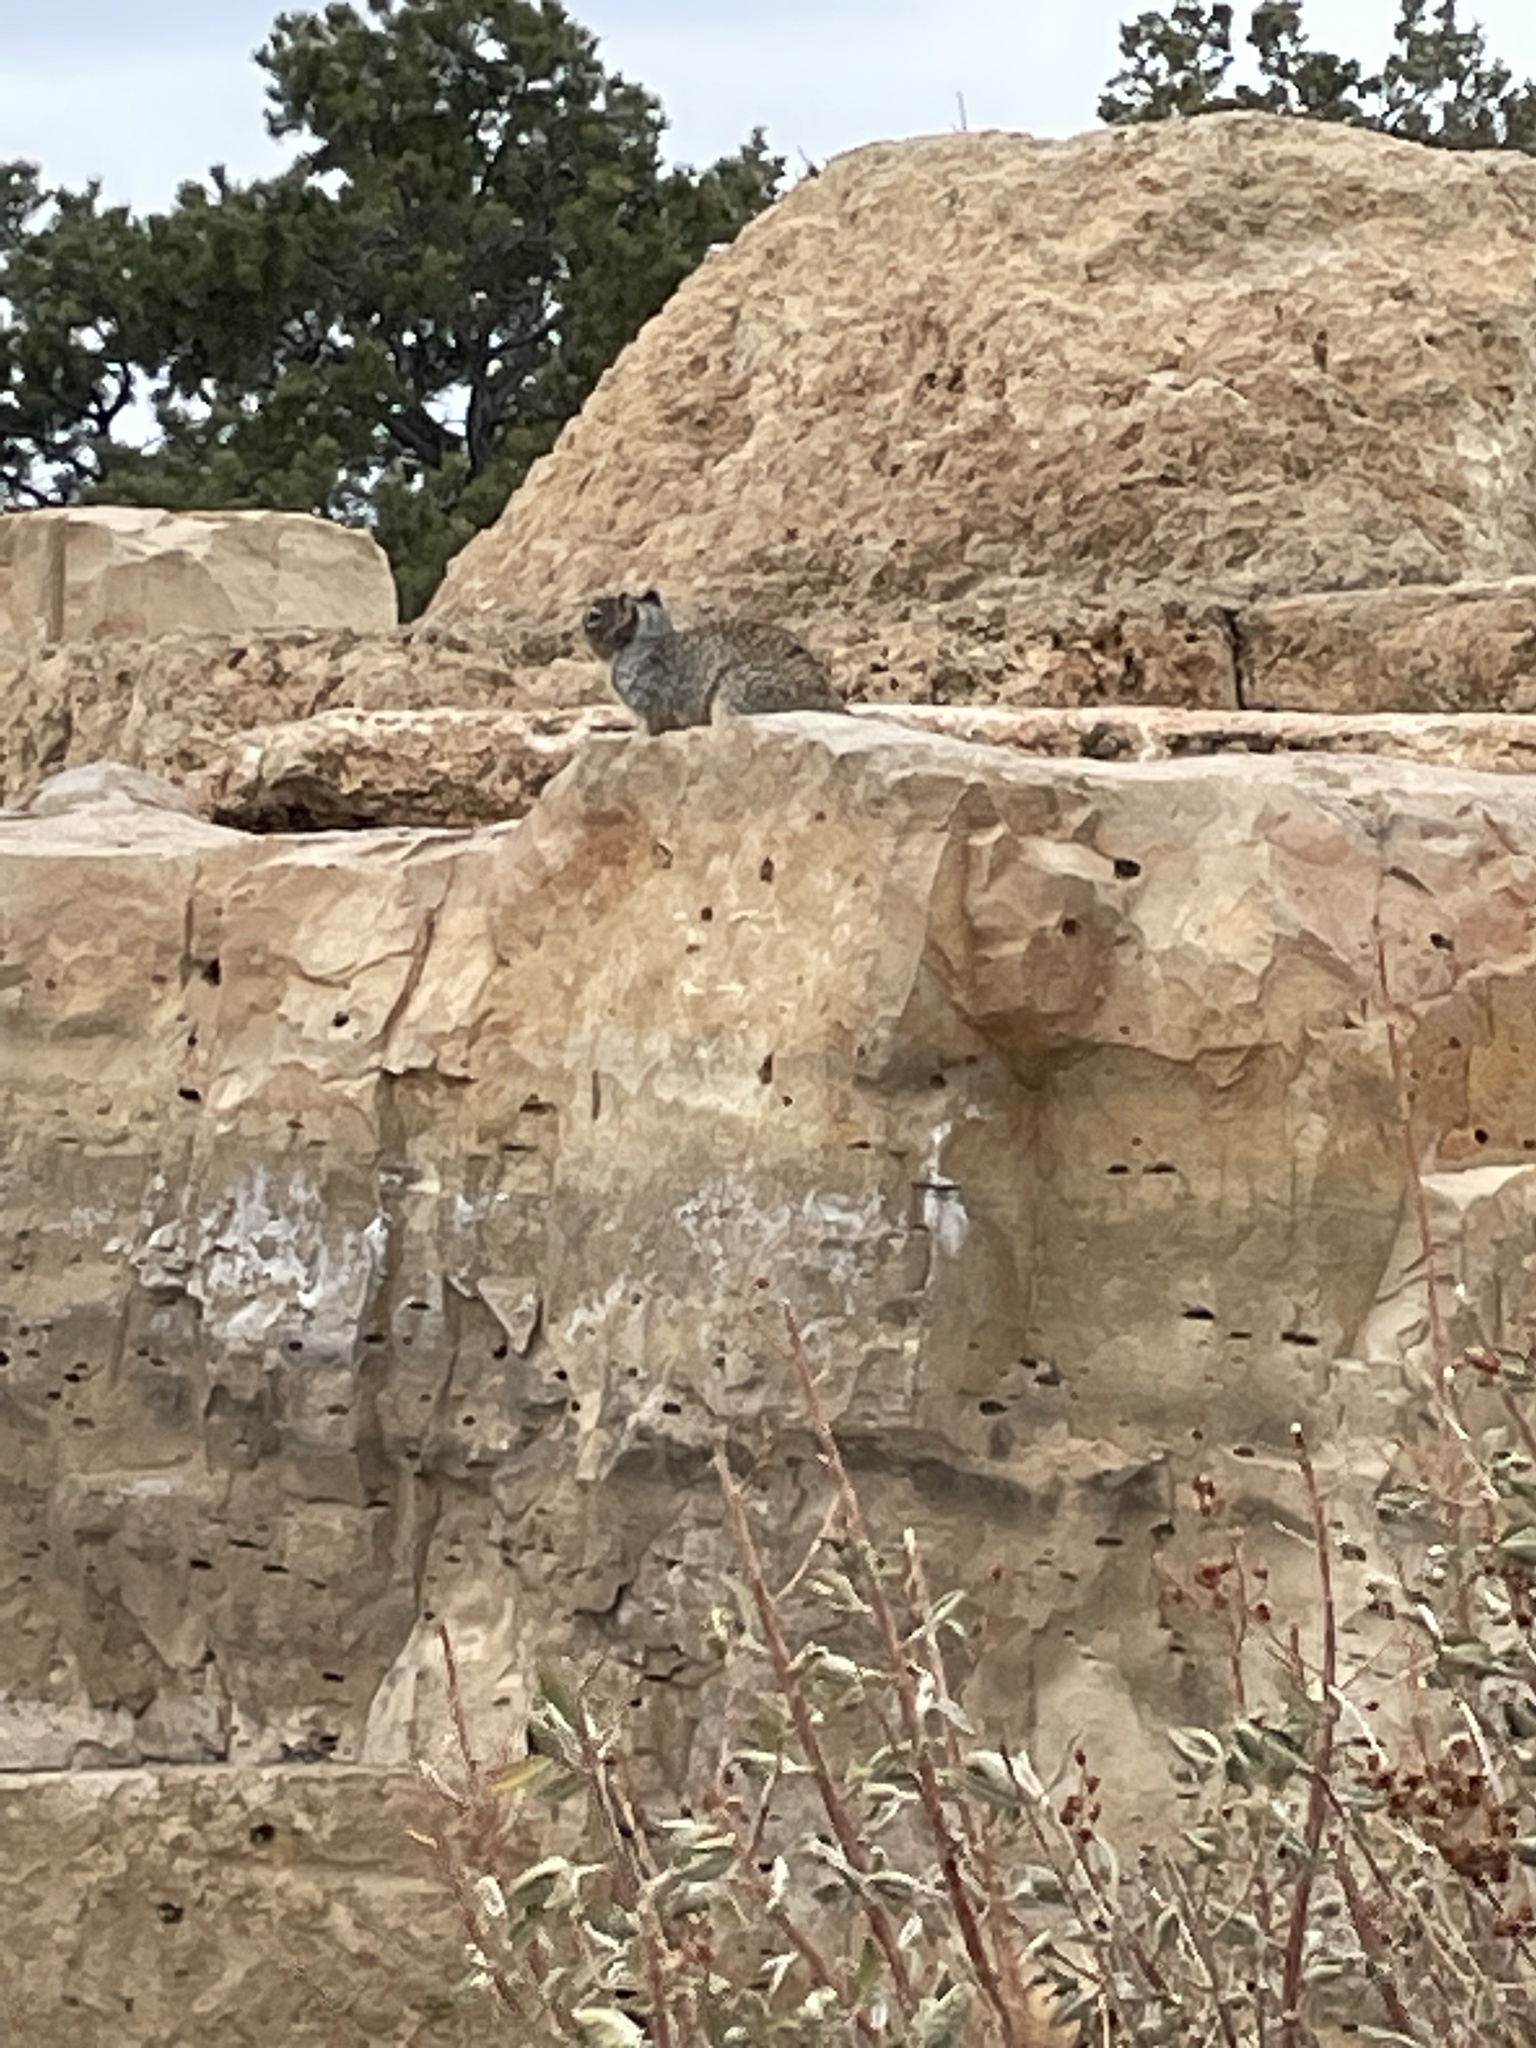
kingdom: Animalia
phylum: Chordata
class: Mammalia
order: Rodentia
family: Sciuridae
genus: Otospermophilus
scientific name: Otospermophilus variegatus
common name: Rock squirrel
